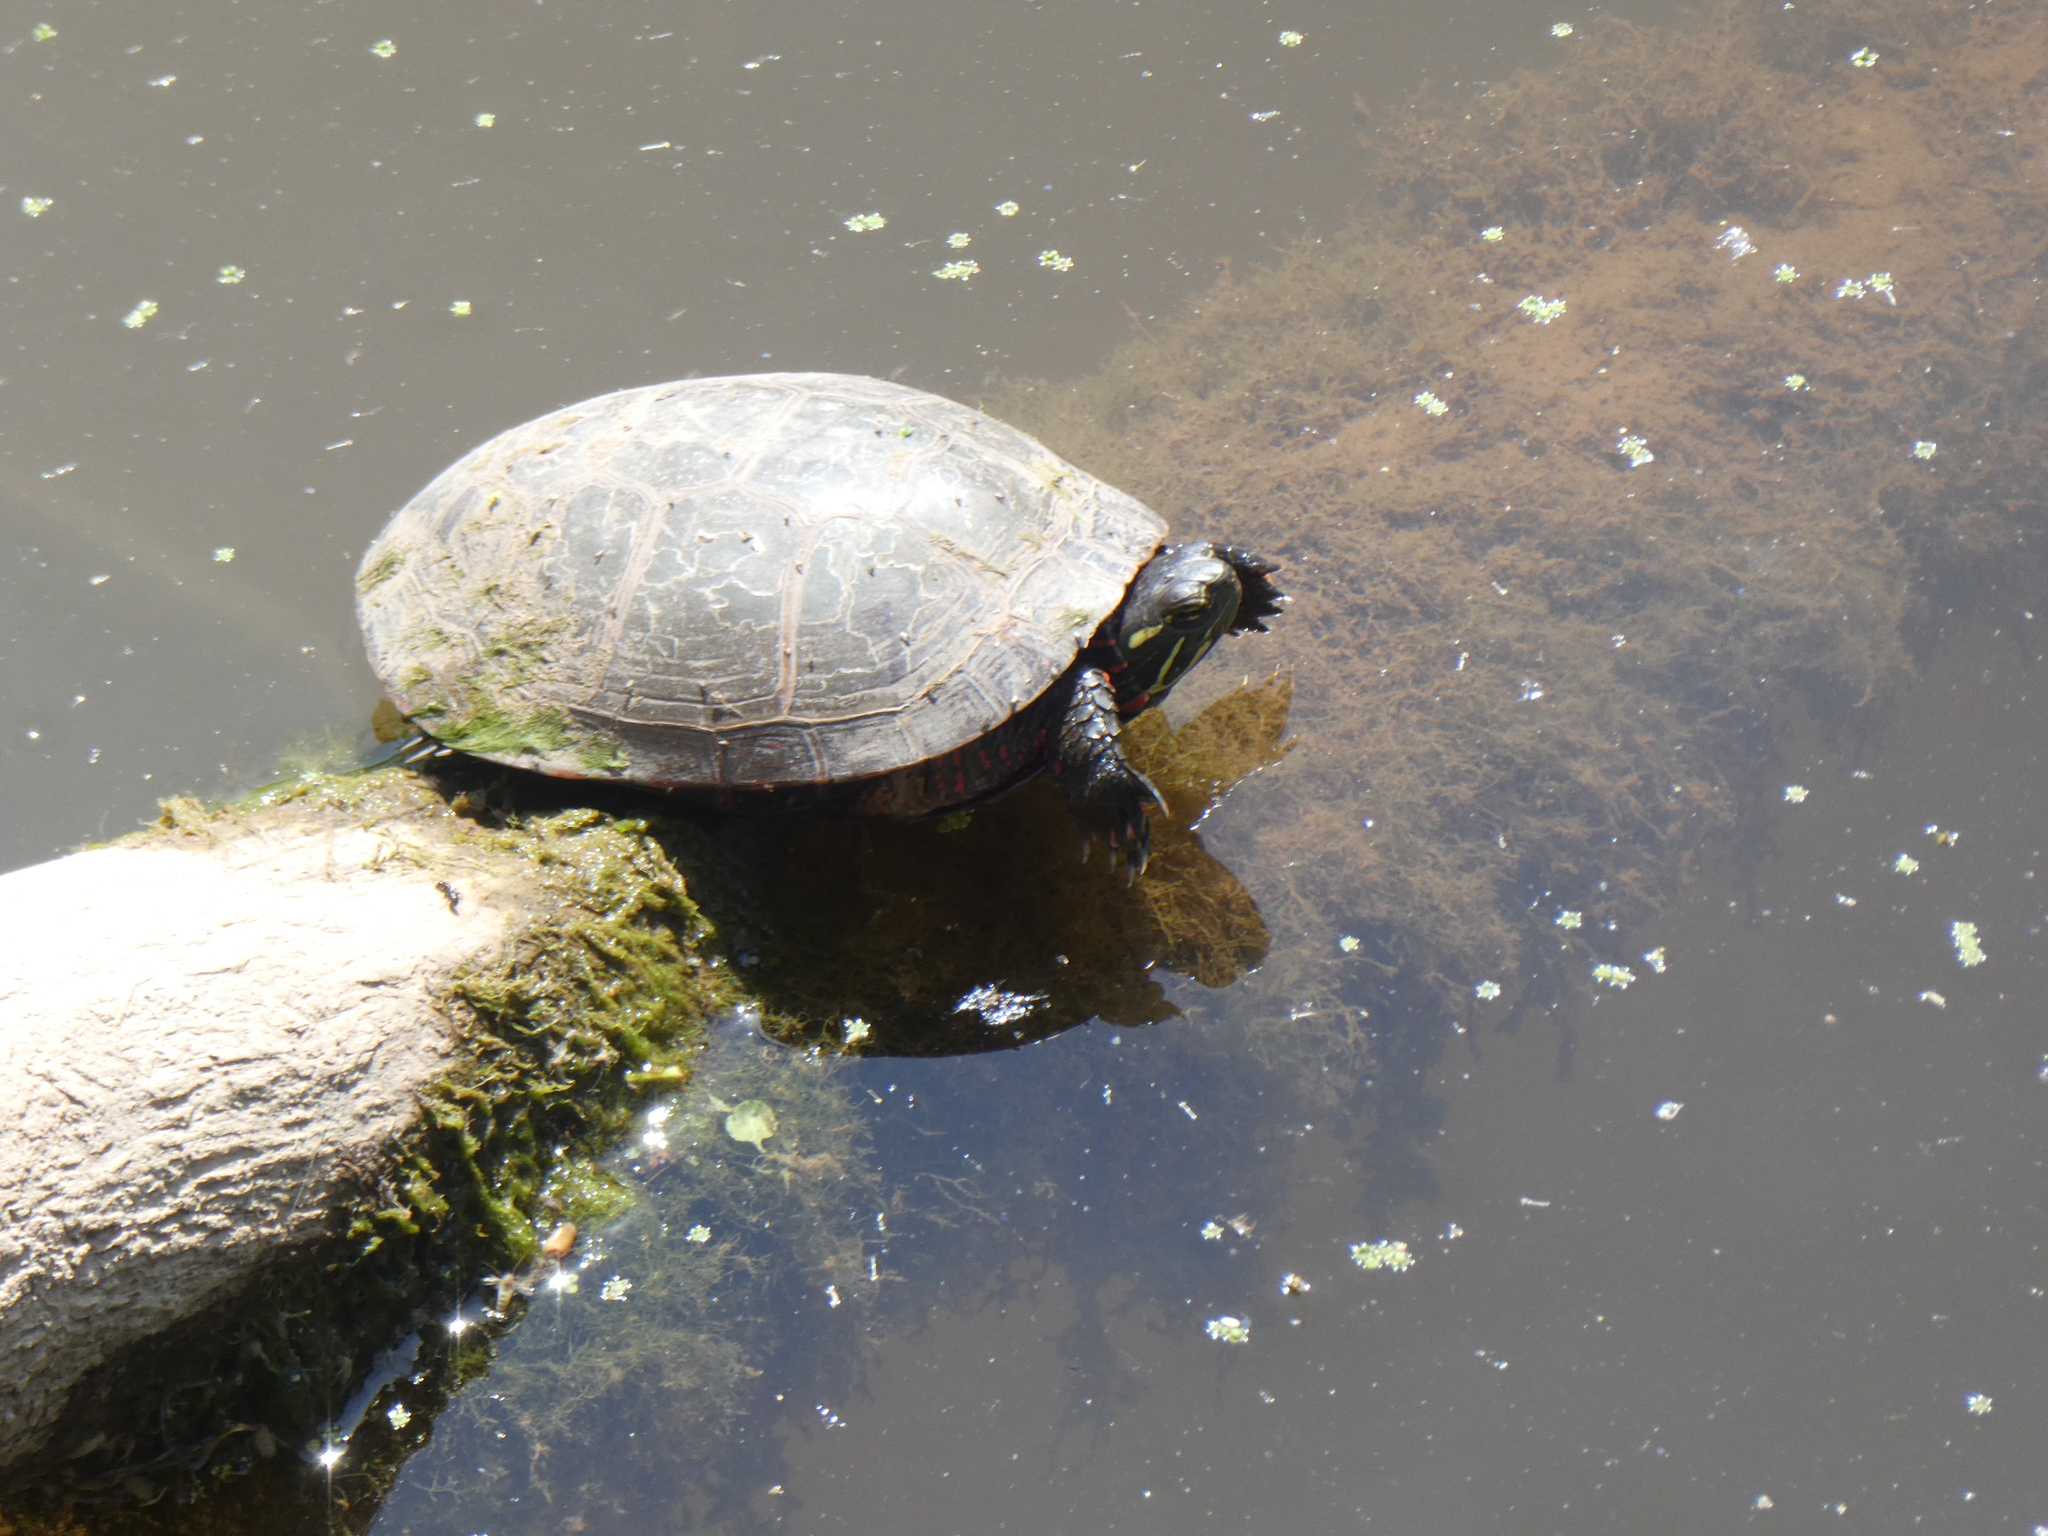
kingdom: Animalia
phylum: Chordata
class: Testudines
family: Emydidae
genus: Chrysemys
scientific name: Chrysemys picta
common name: Painted turtle
